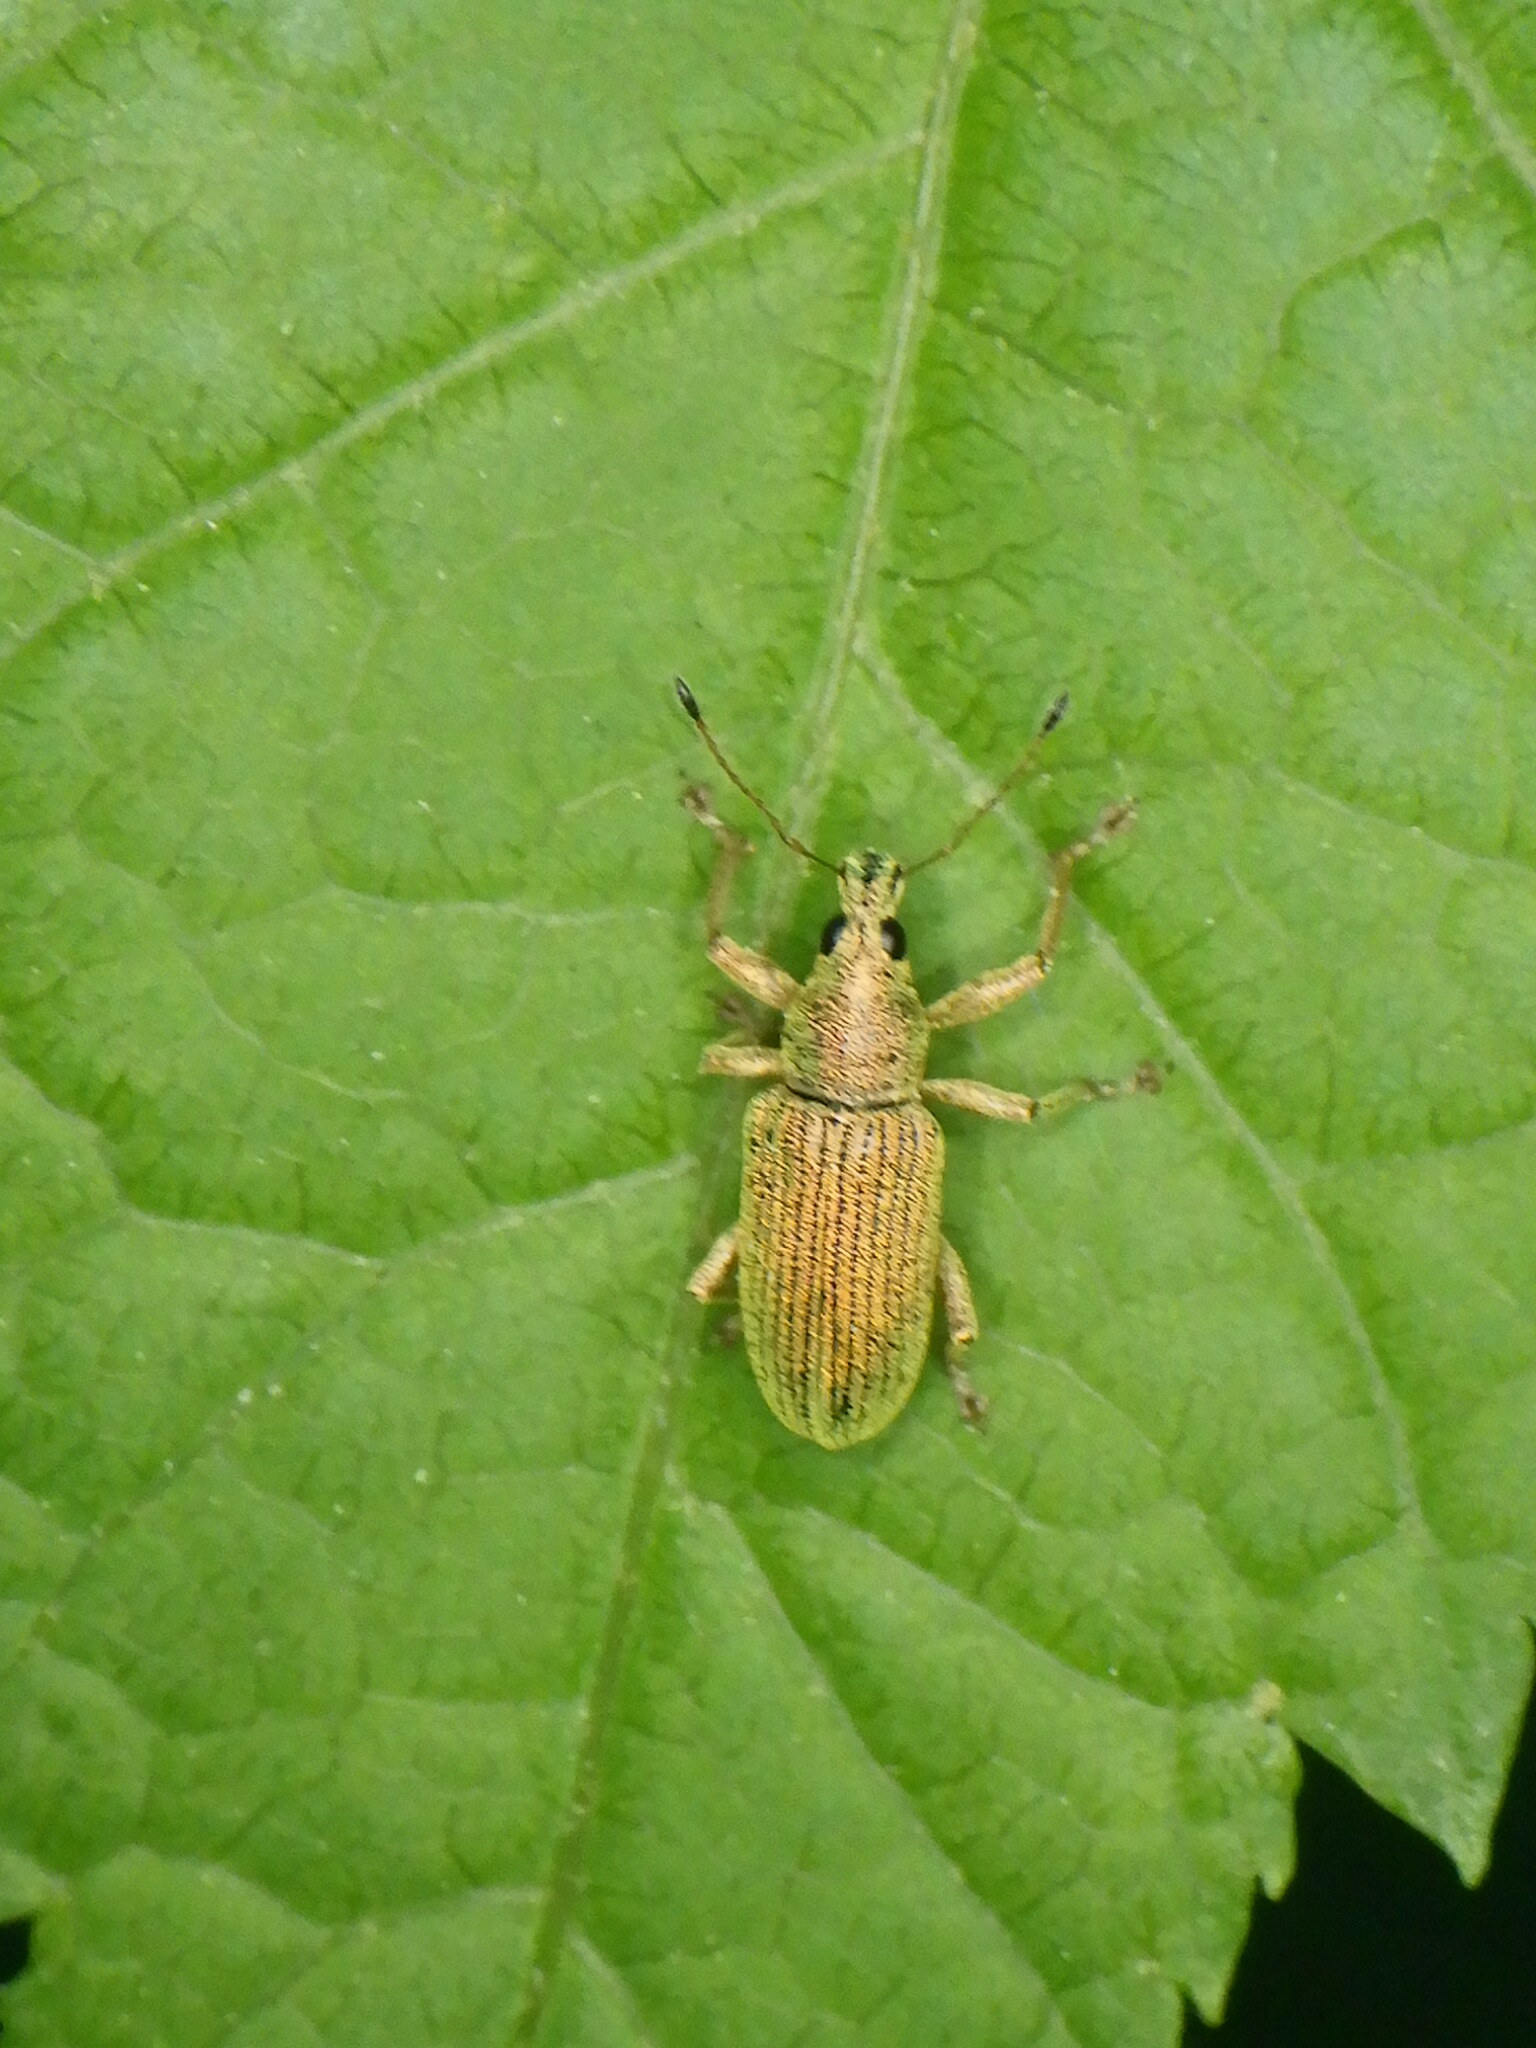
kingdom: Animalia
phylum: Arthropoda
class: Insecta
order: Coleoptera
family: Curculionidae
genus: Polydrusus
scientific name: Polydrusus formosus
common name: Weevil
